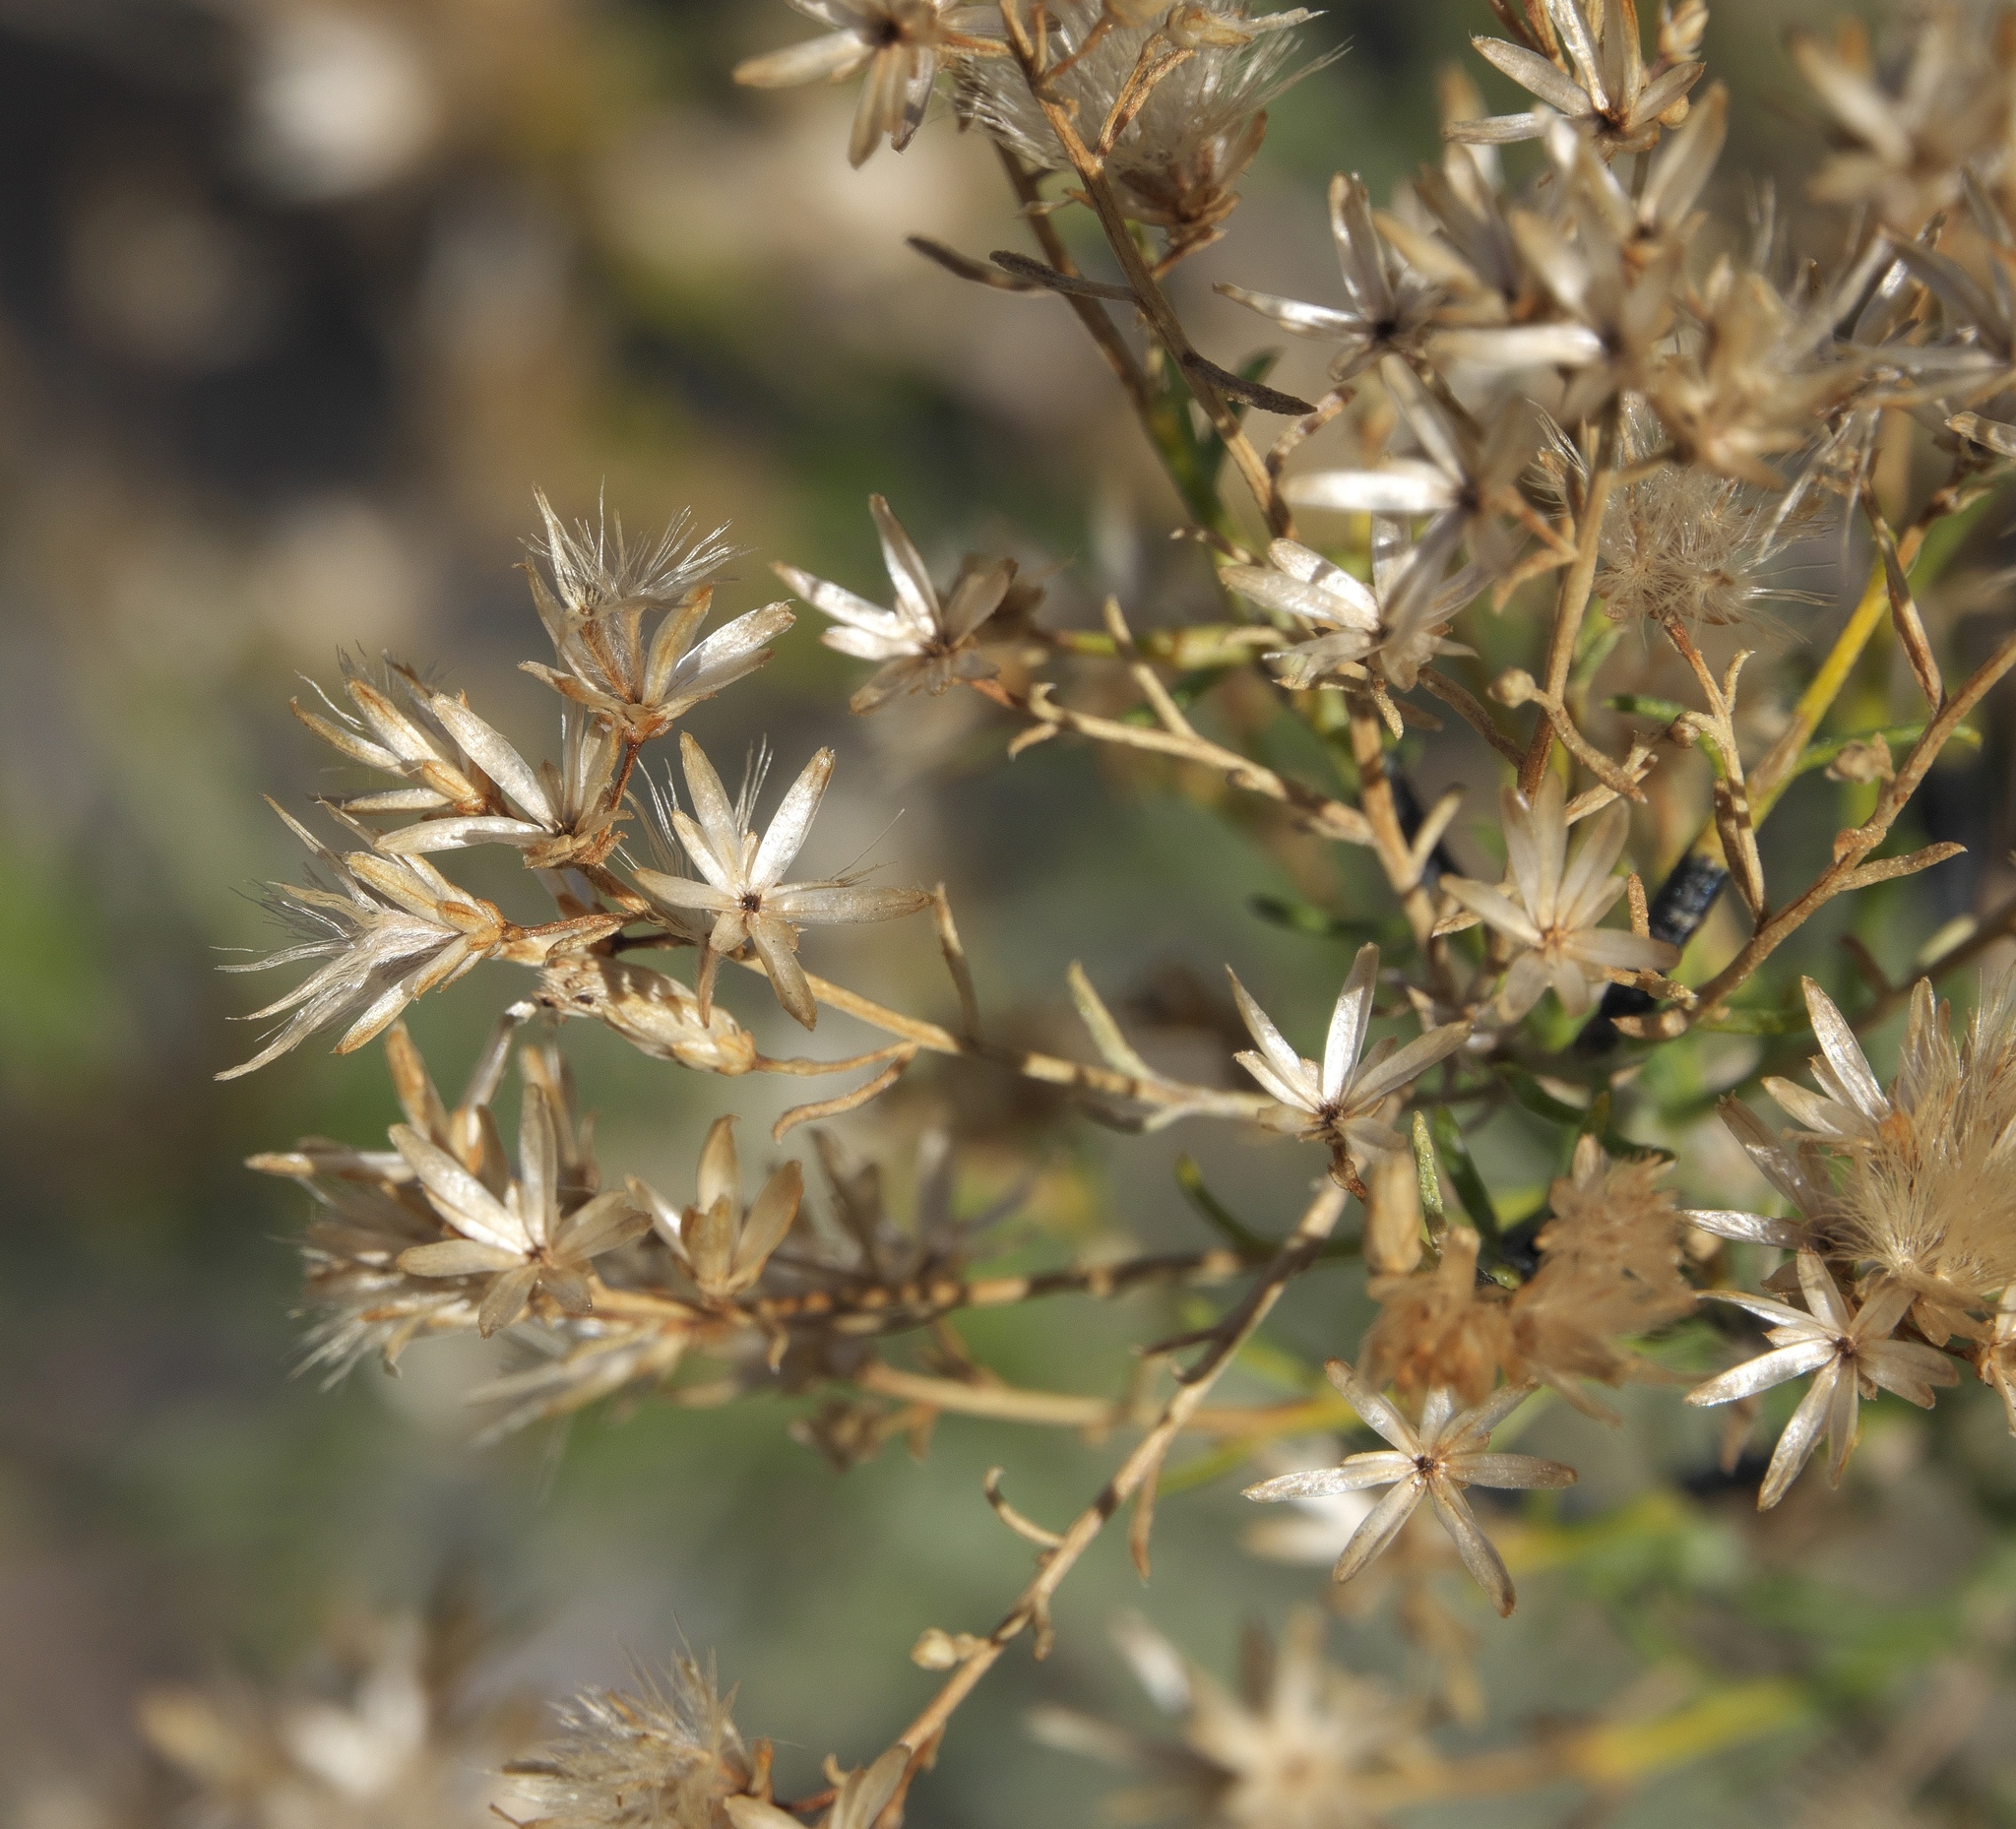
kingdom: Plantae
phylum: Tracheophyta
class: Magnoliopsida
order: Asterales
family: Asteraceae
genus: Ericameria
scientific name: Ericameria paniculata
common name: Punctate rabbitbrush
